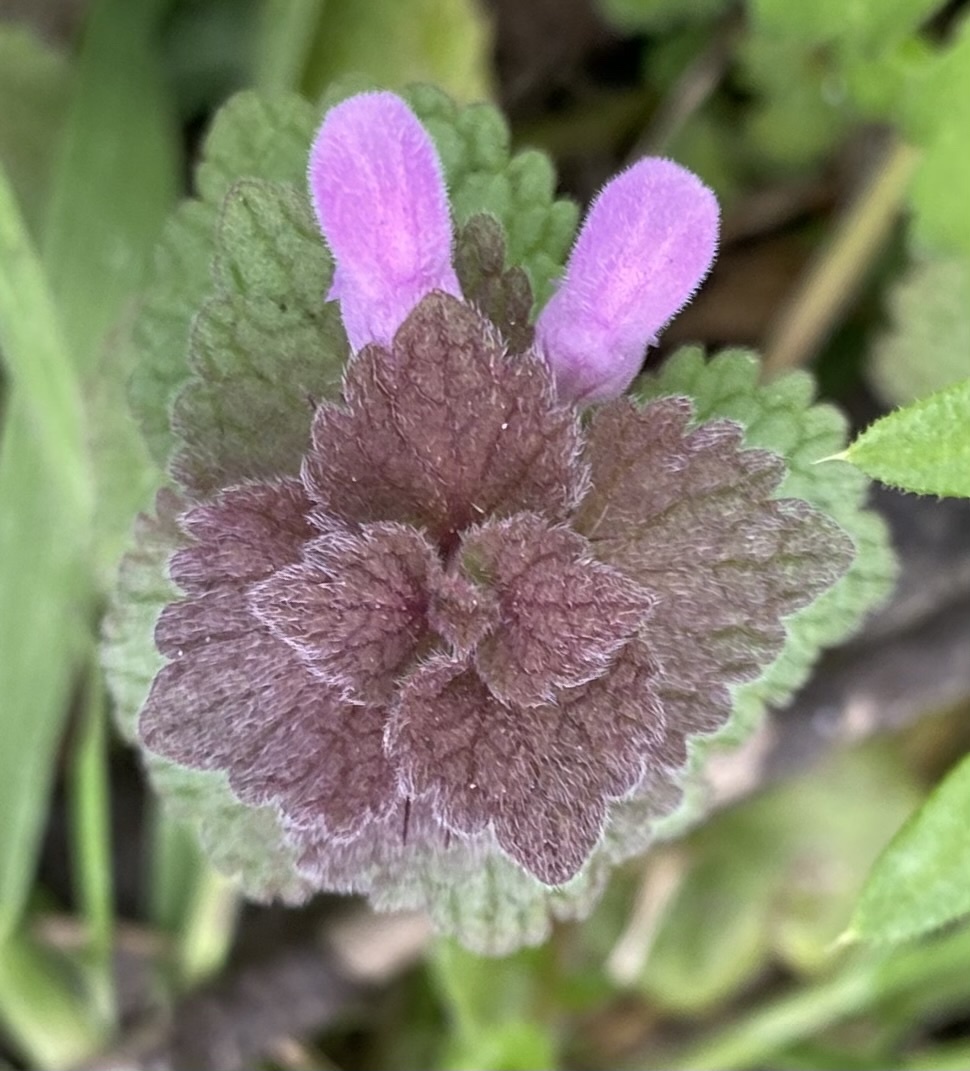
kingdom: Plantae
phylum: Tracheophyta
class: Magnoliopsida
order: Lamiales
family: Lamiaceae
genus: Lamium
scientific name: Lamium purpureum
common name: Red dead-nettle
